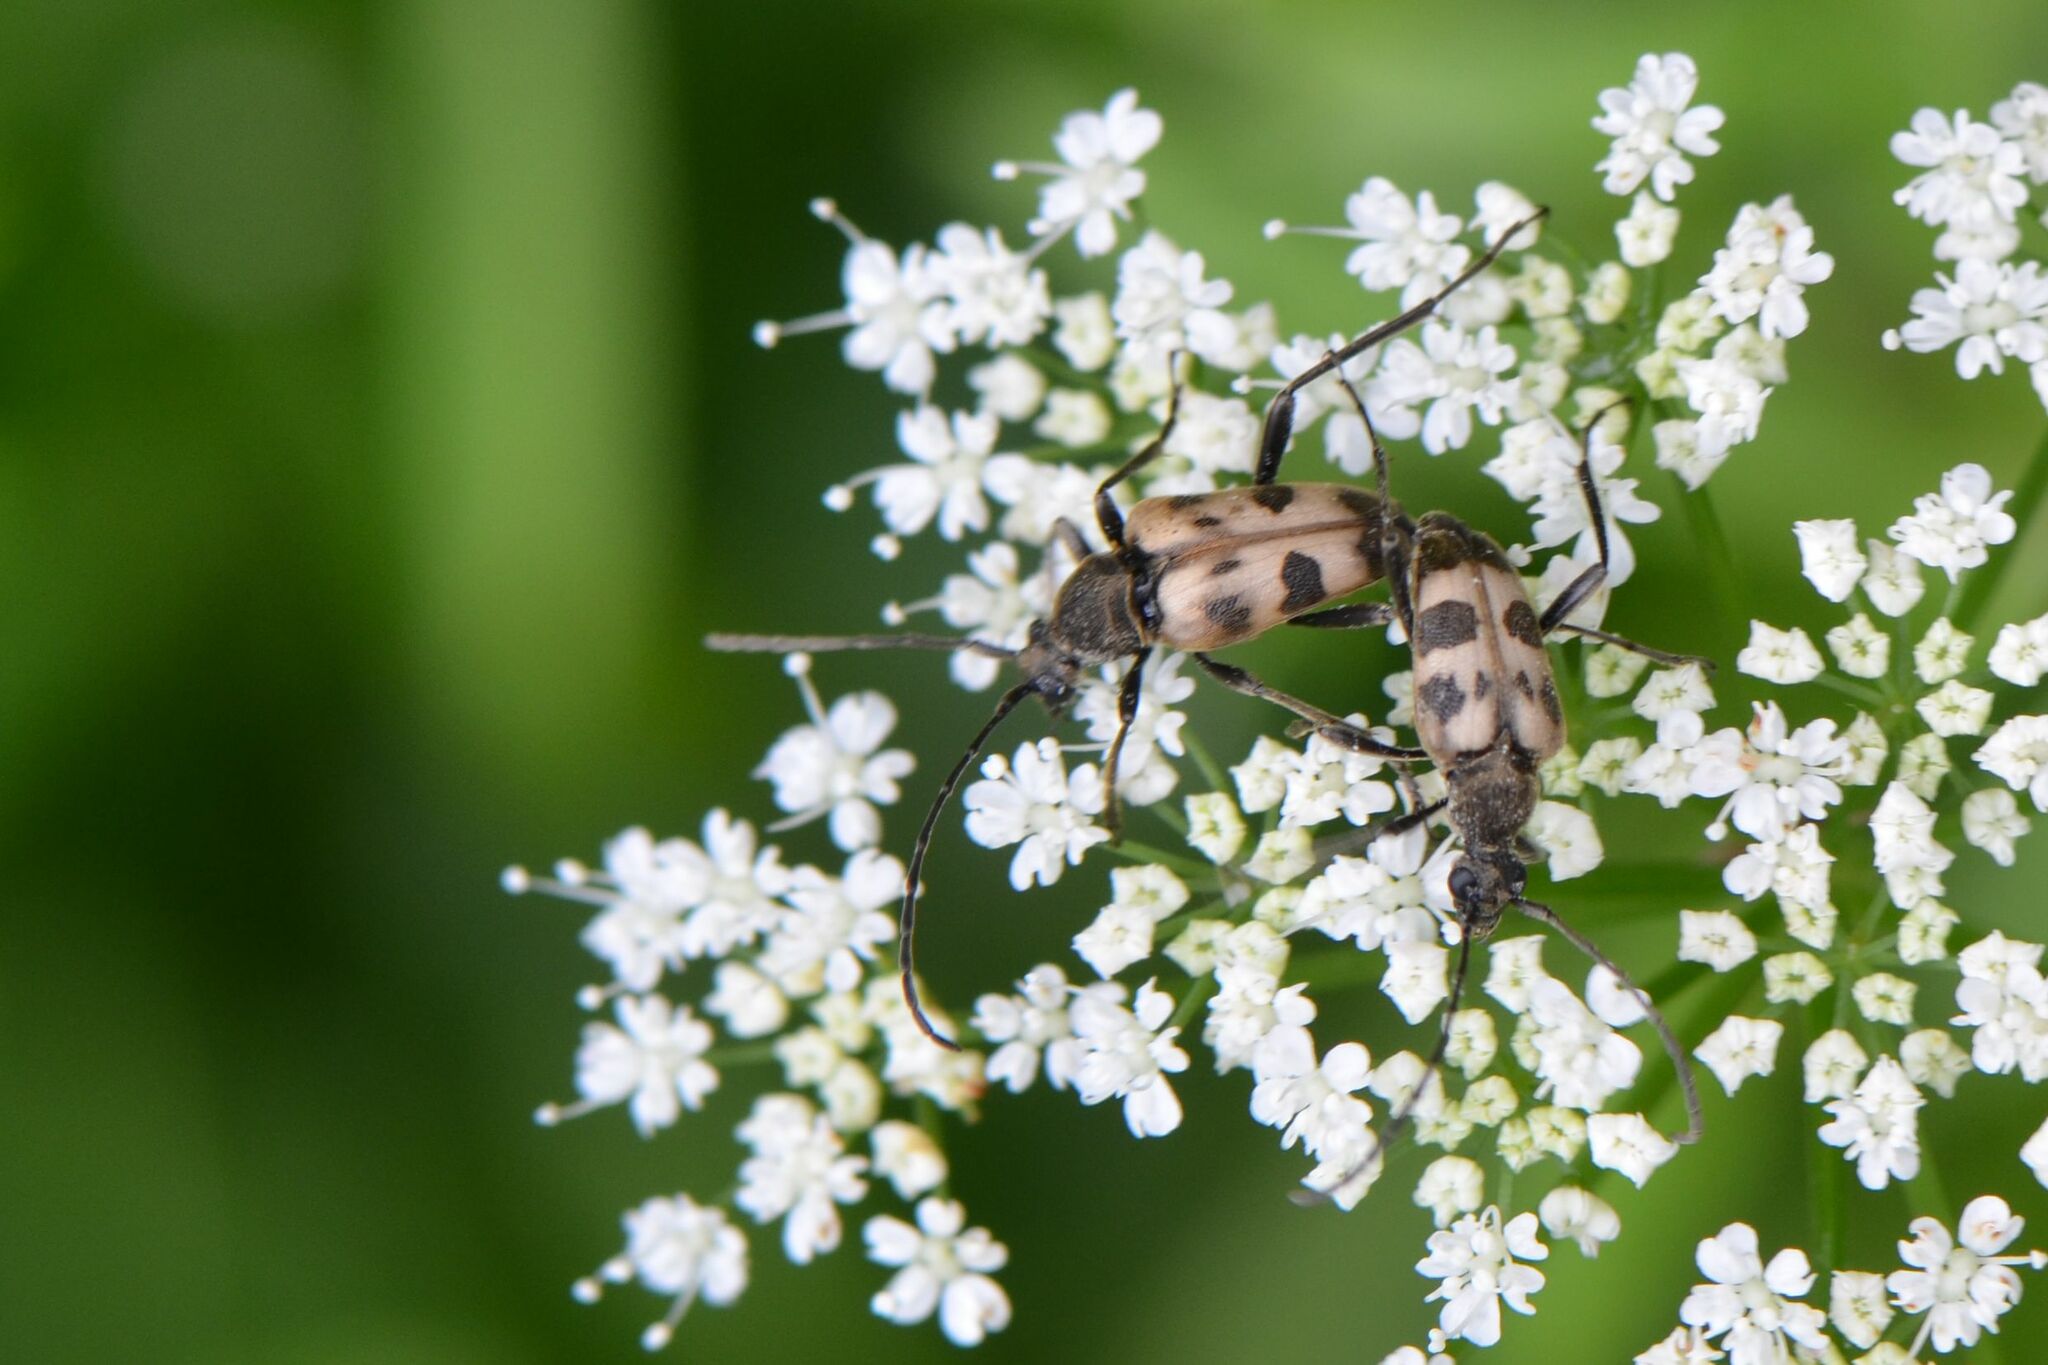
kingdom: Animalia
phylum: Arthropoda
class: Insecta
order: Coleoptera
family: Cerambycidae
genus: Pachytodes
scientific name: Pachytodes cerambyciformis
